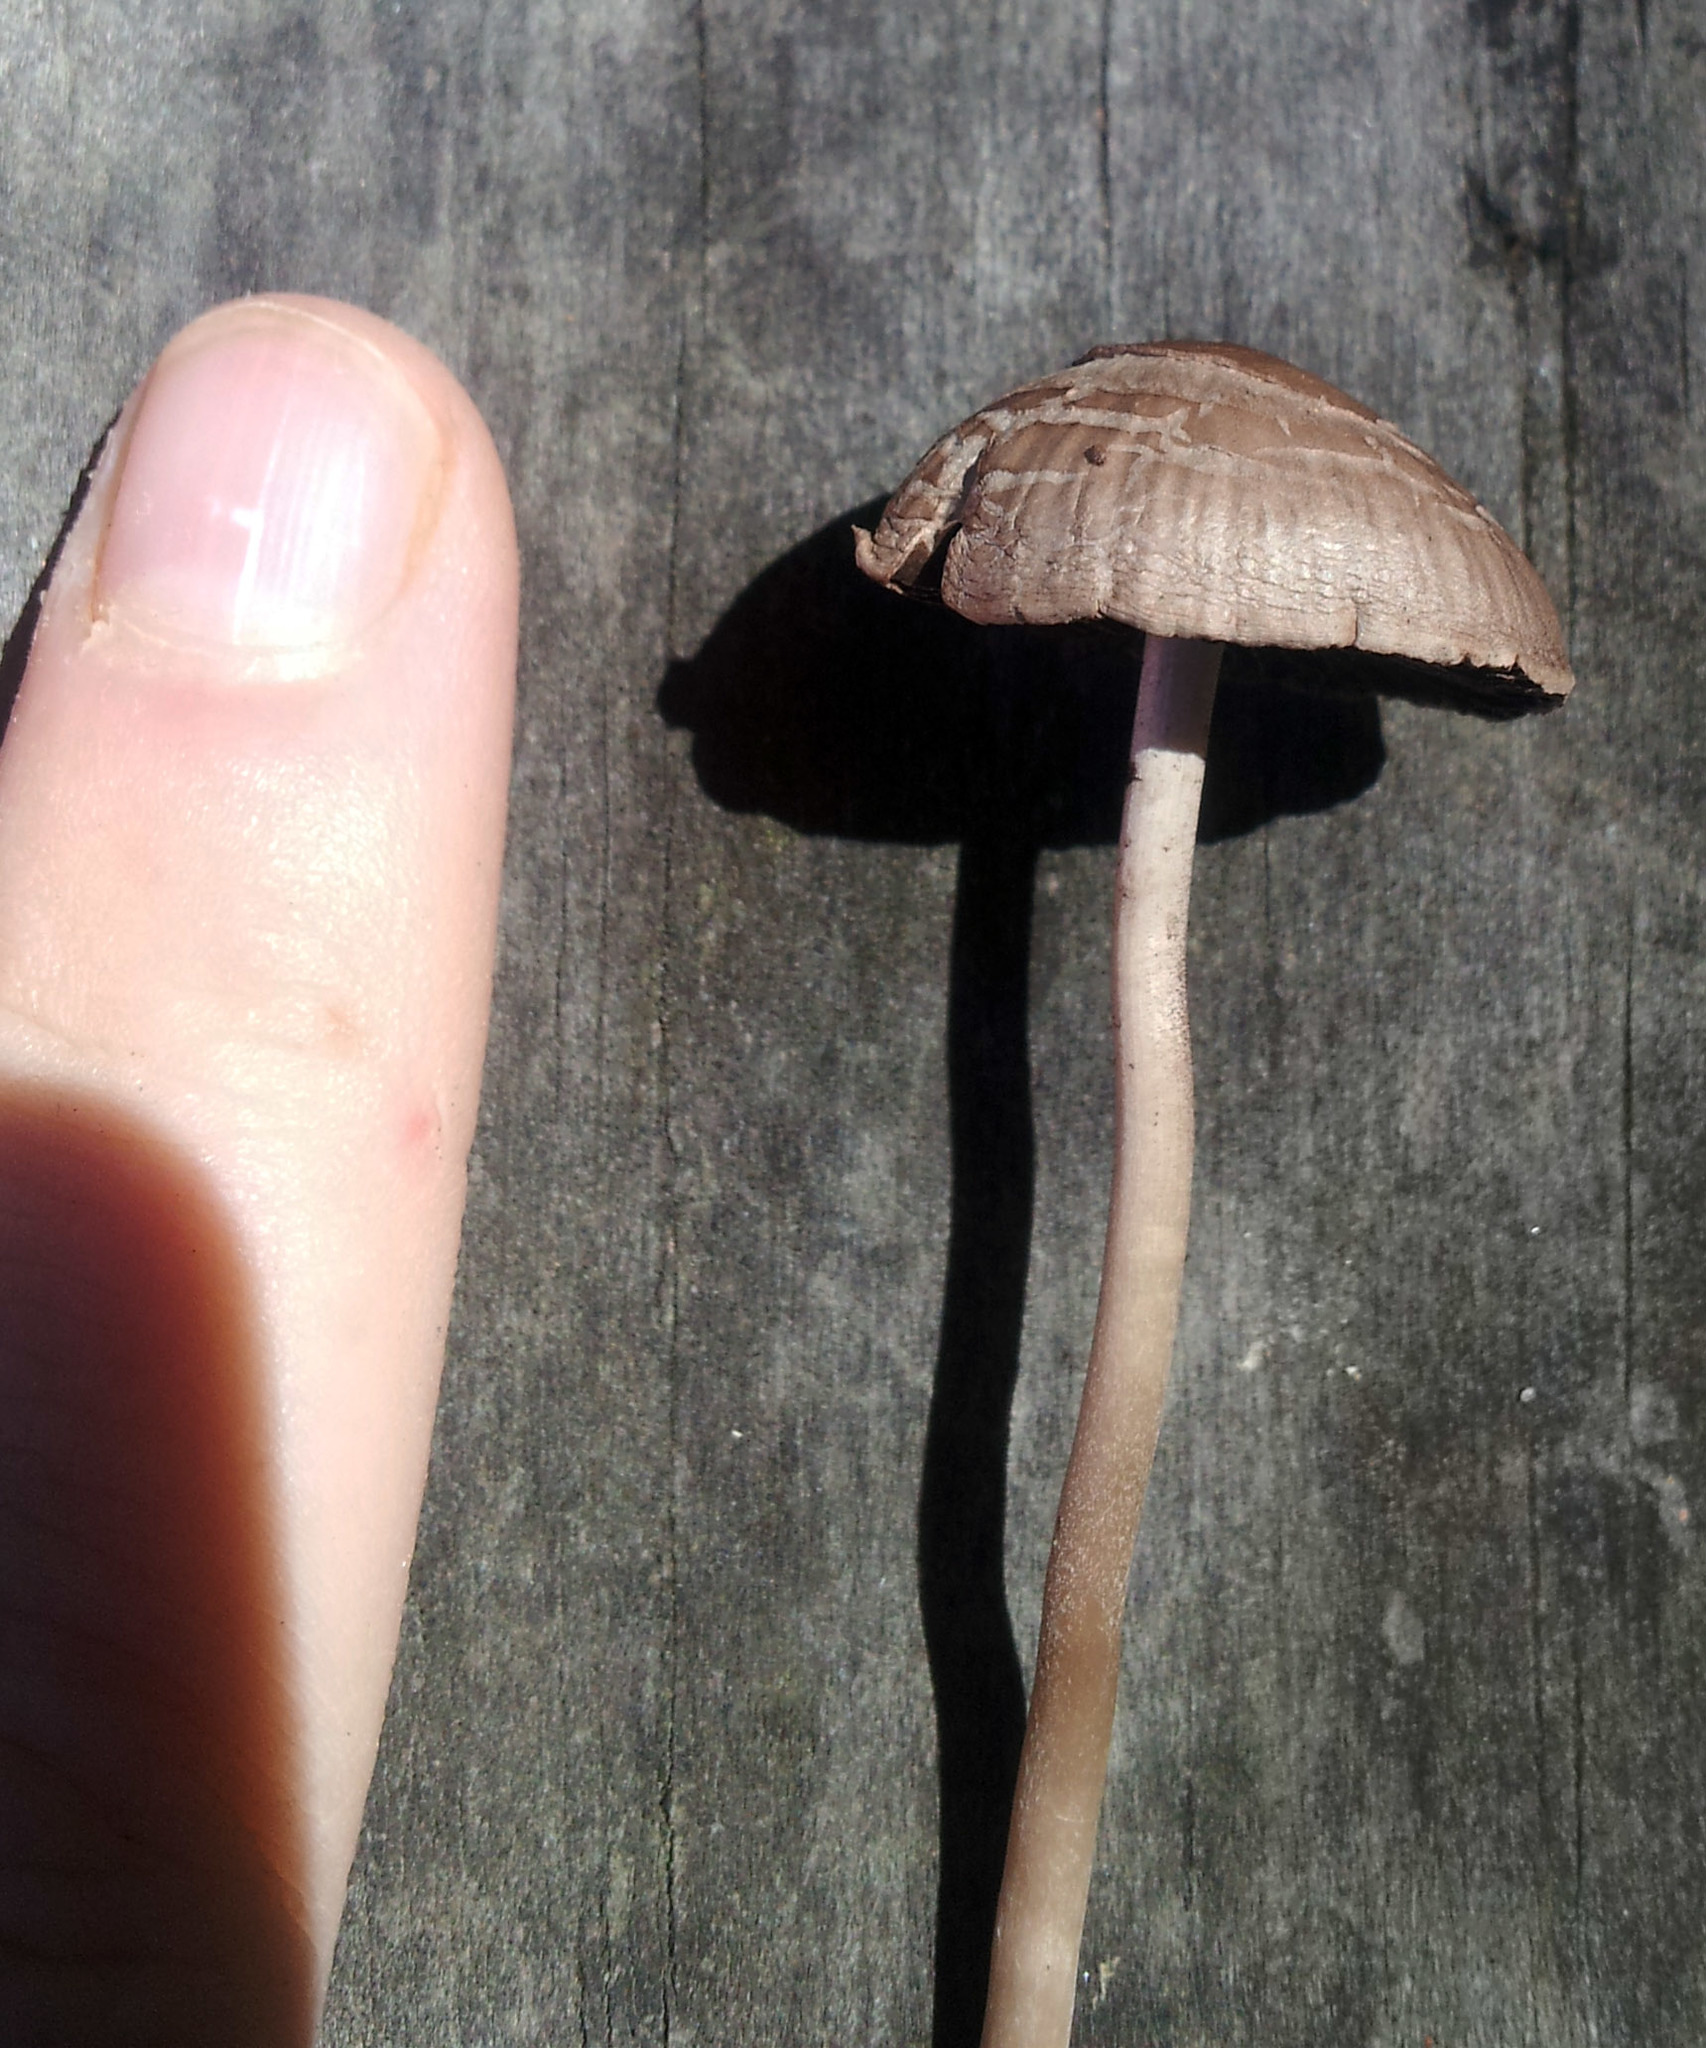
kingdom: Fungi
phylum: Basidiomycota
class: Agaricomycetes
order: Agaricales
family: Bolbitiaceae
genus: Panaeolina
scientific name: Panaeolina foenisecii
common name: Brown hay cap
